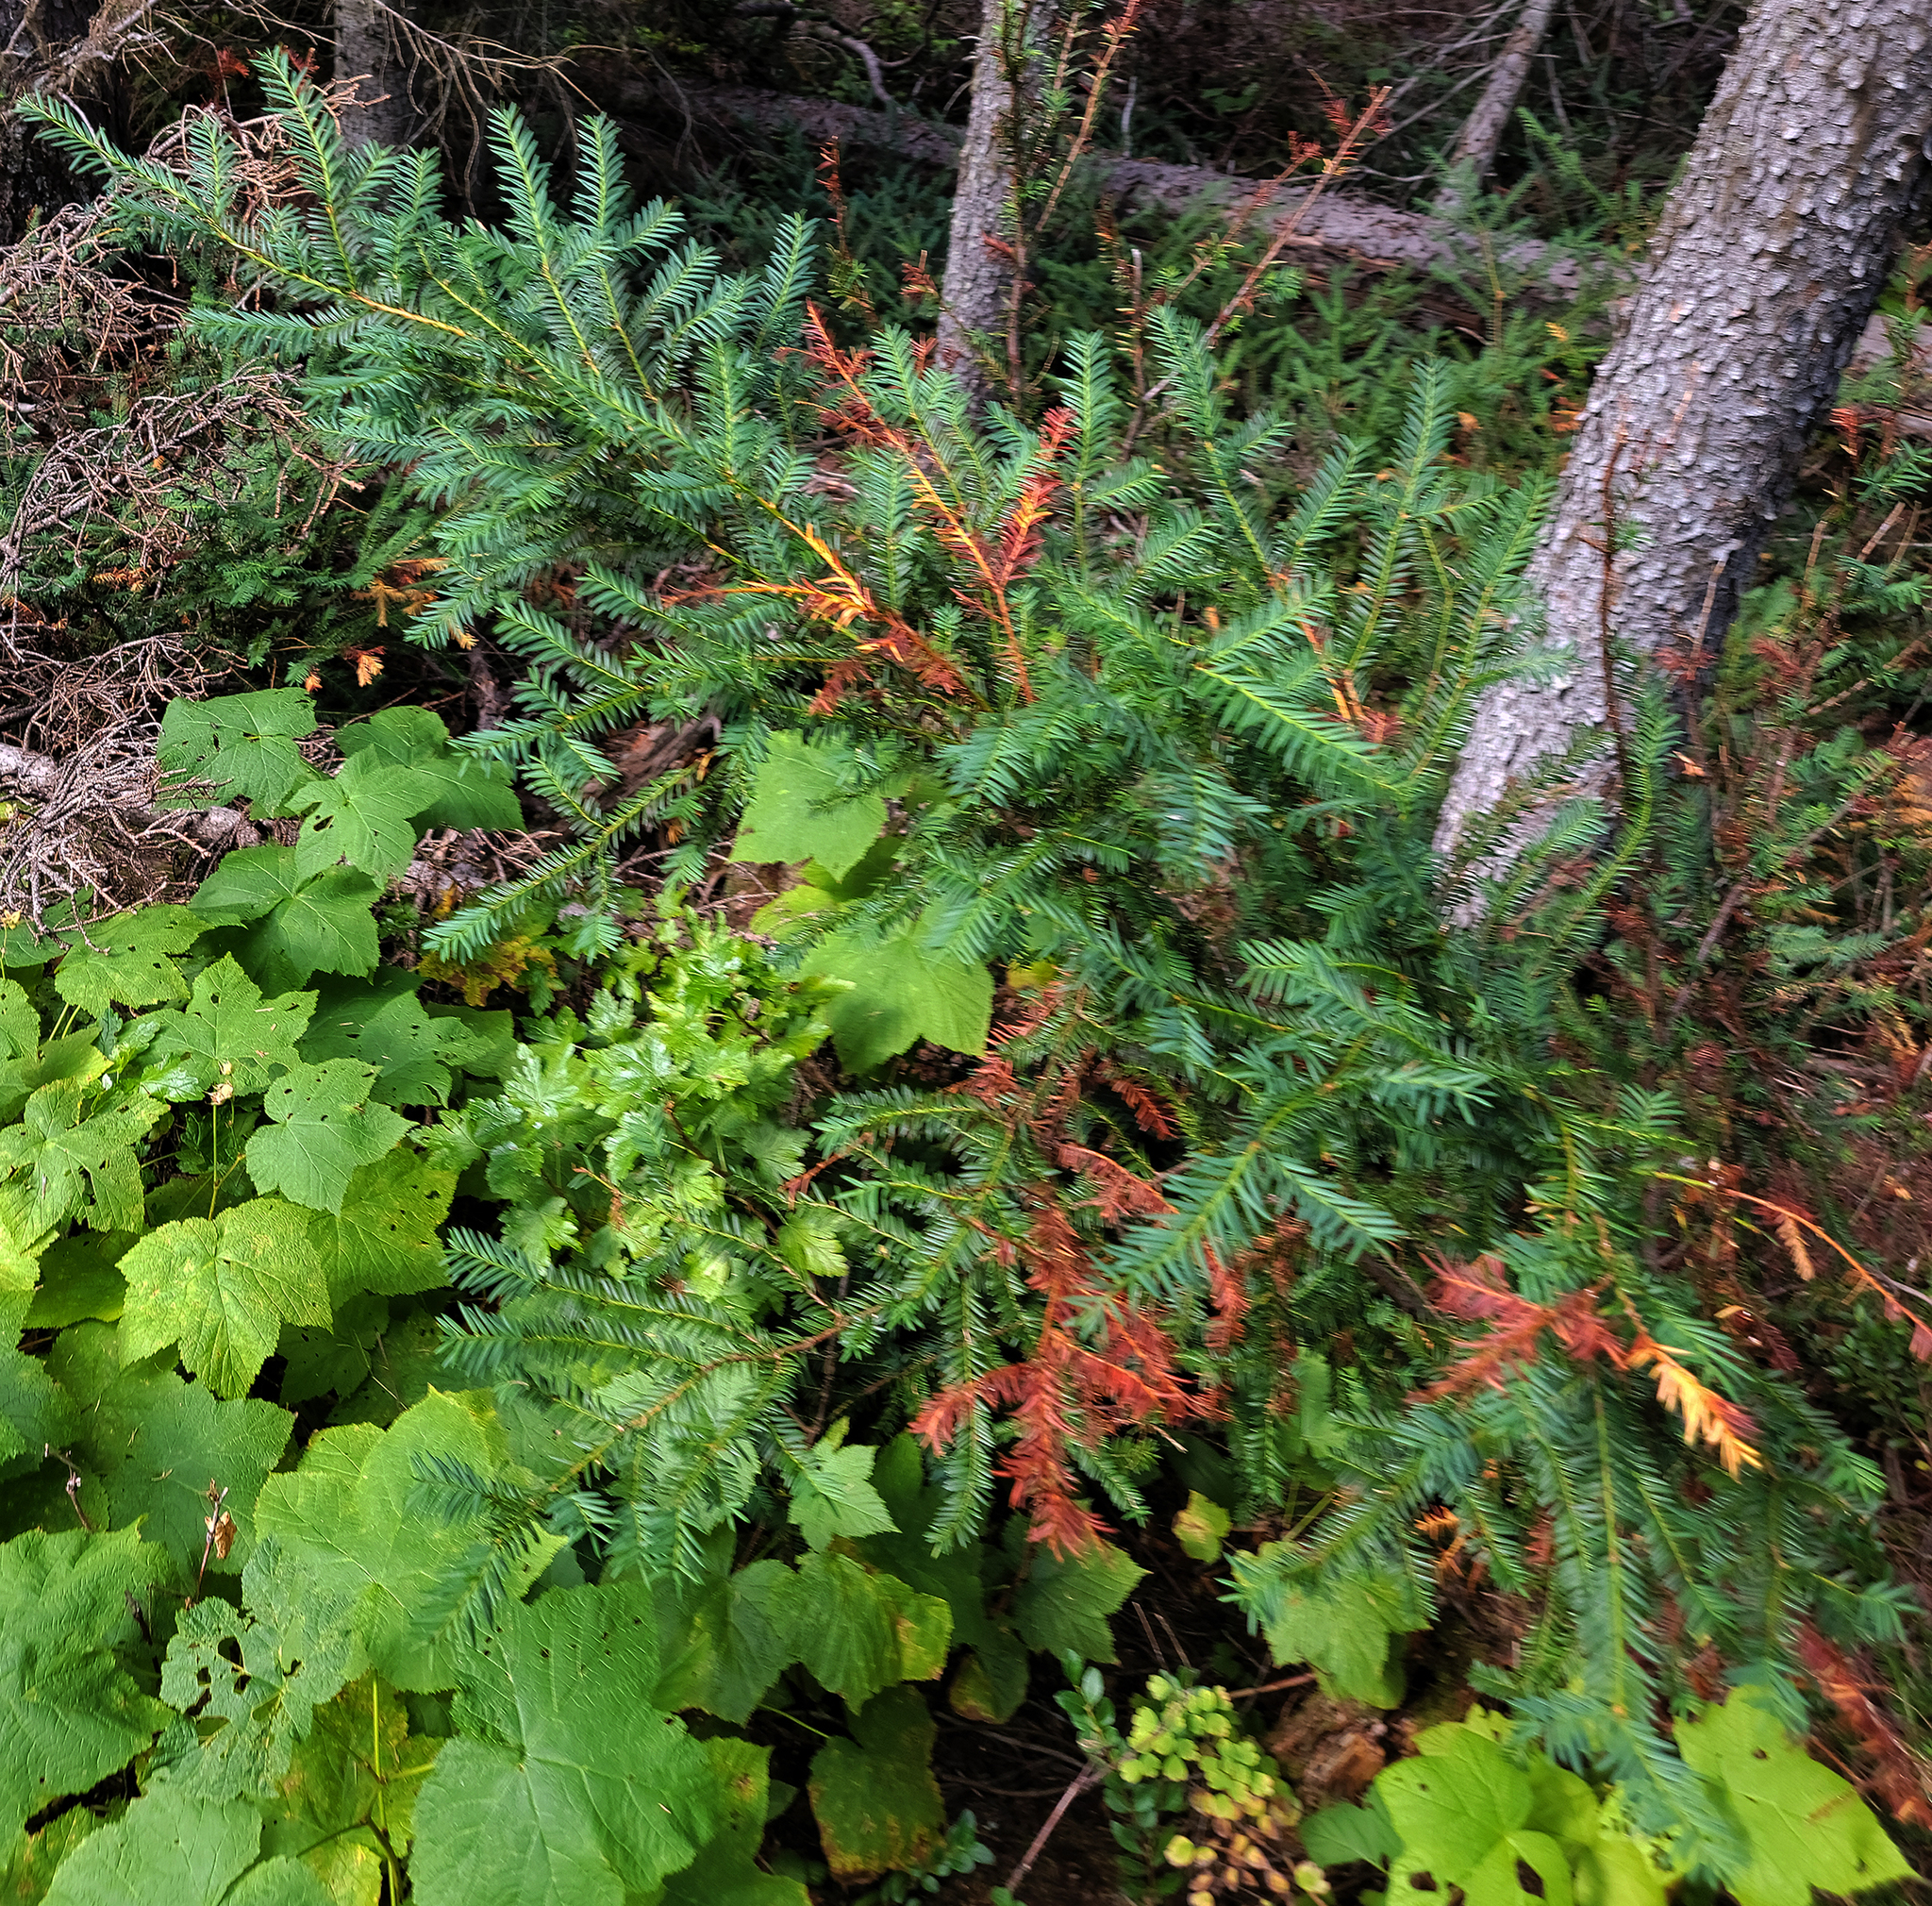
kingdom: Plantae
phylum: Tracheophyta
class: Pinopsida
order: Pinales
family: Taxaceae
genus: Taxus
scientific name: Taxus brevifolia
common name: Pacific yew
